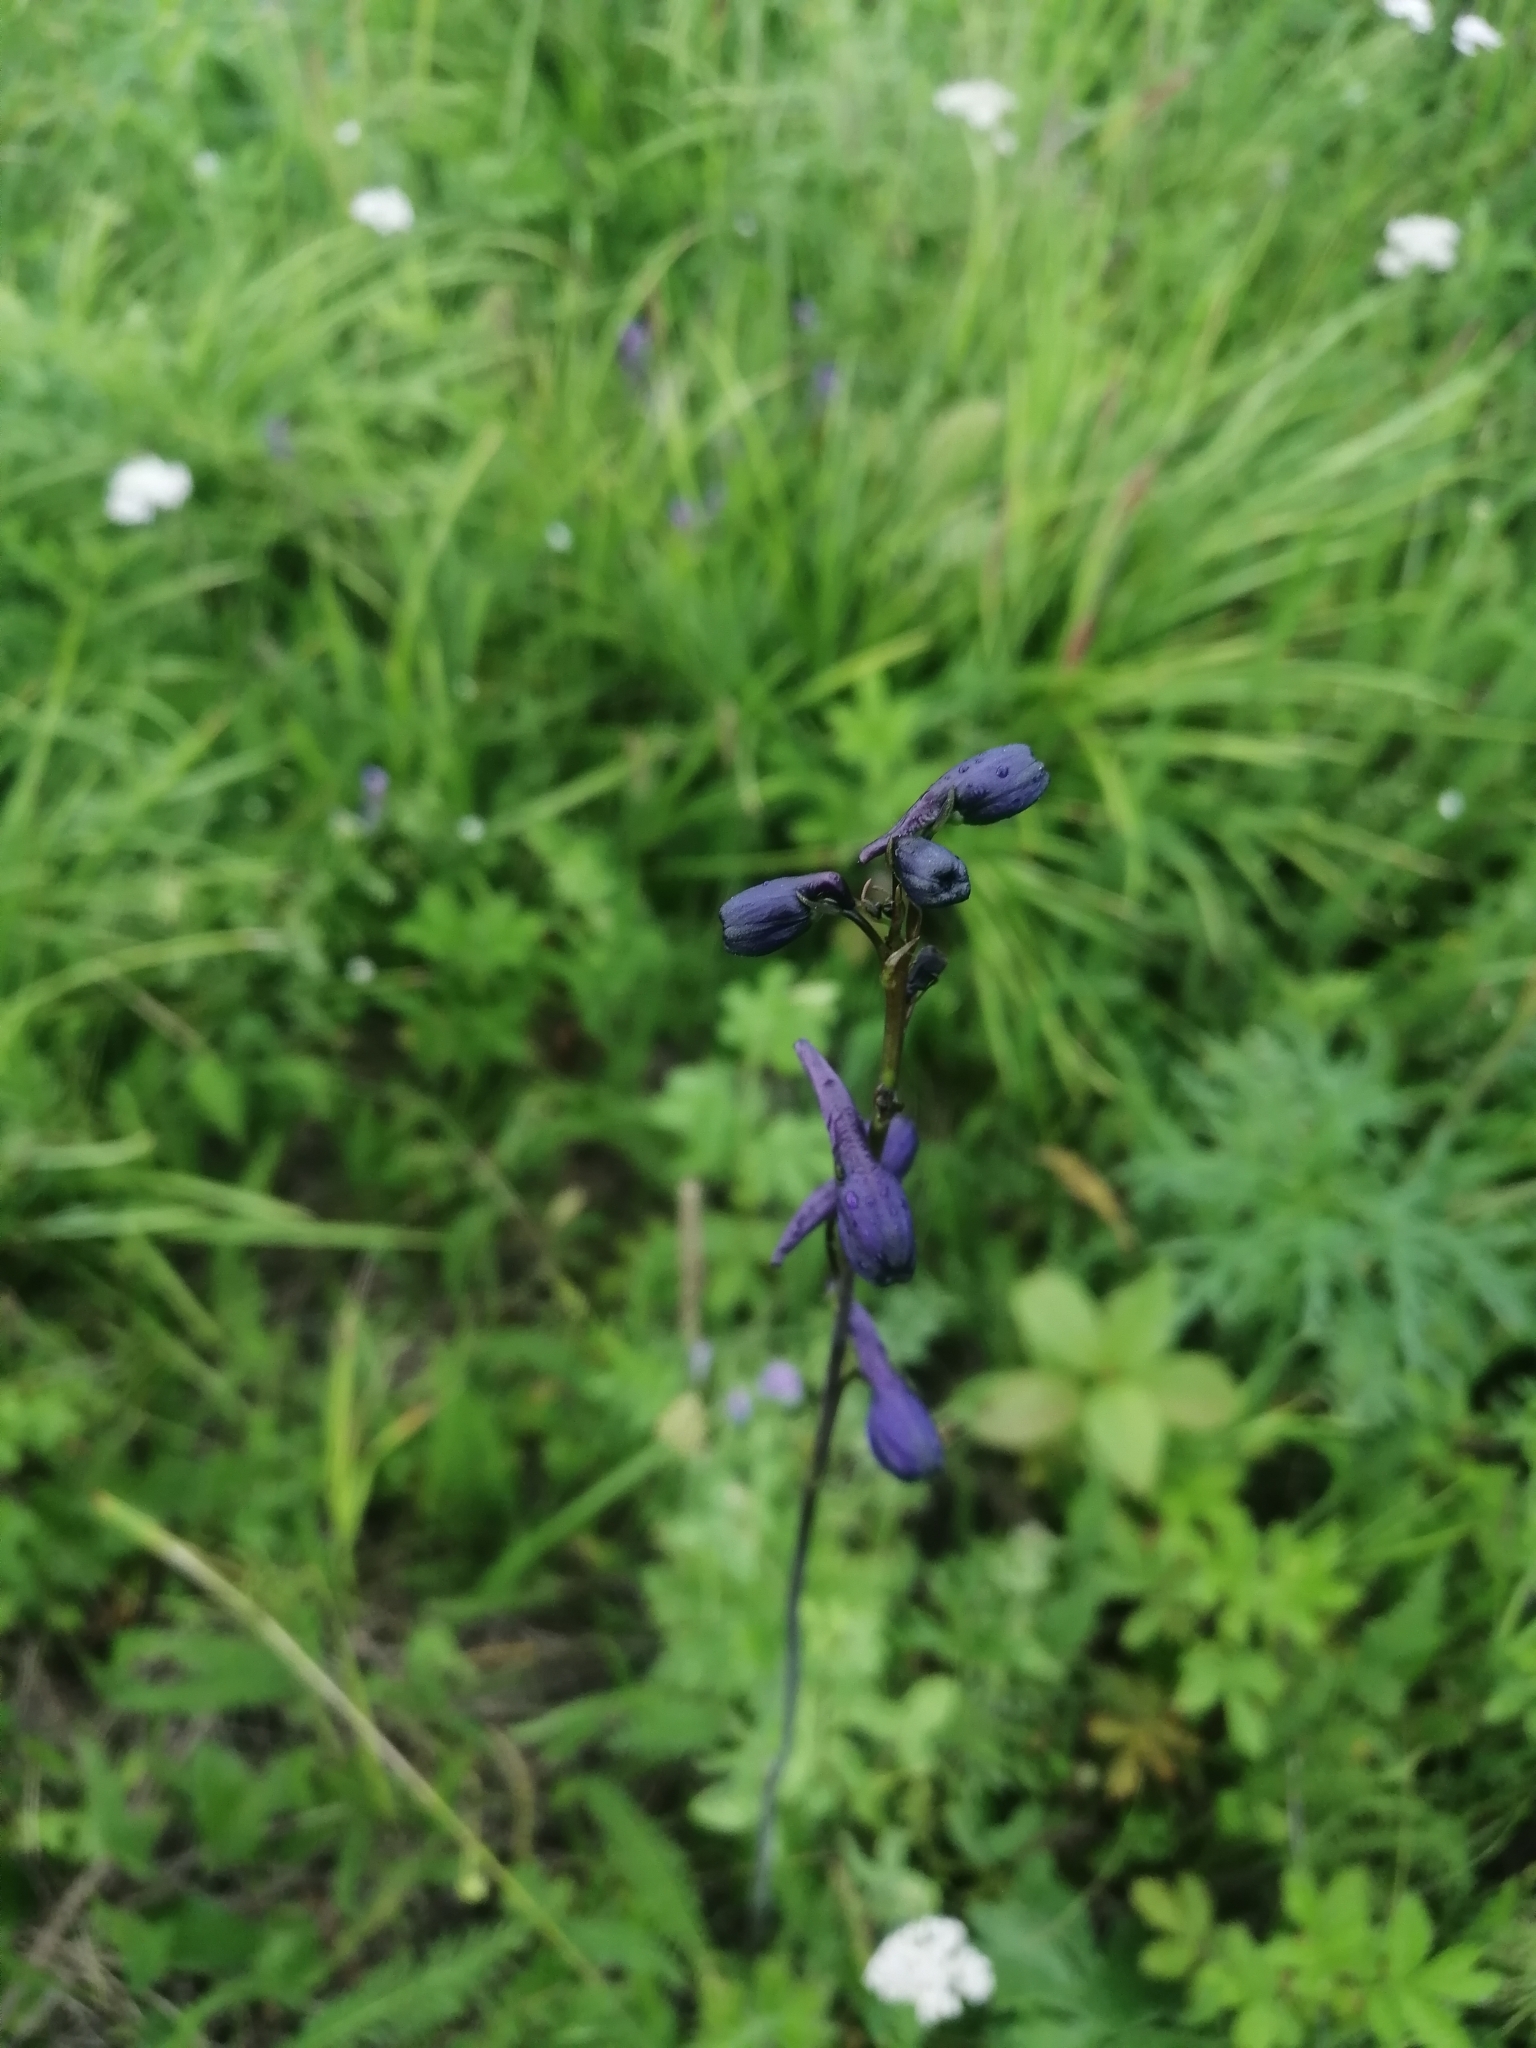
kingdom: Plantae
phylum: Tracheophyta
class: Magnoliopsida
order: Ranunculales
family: Ranunculaceae
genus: Delphinium
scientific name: Delphinium crassifolium
